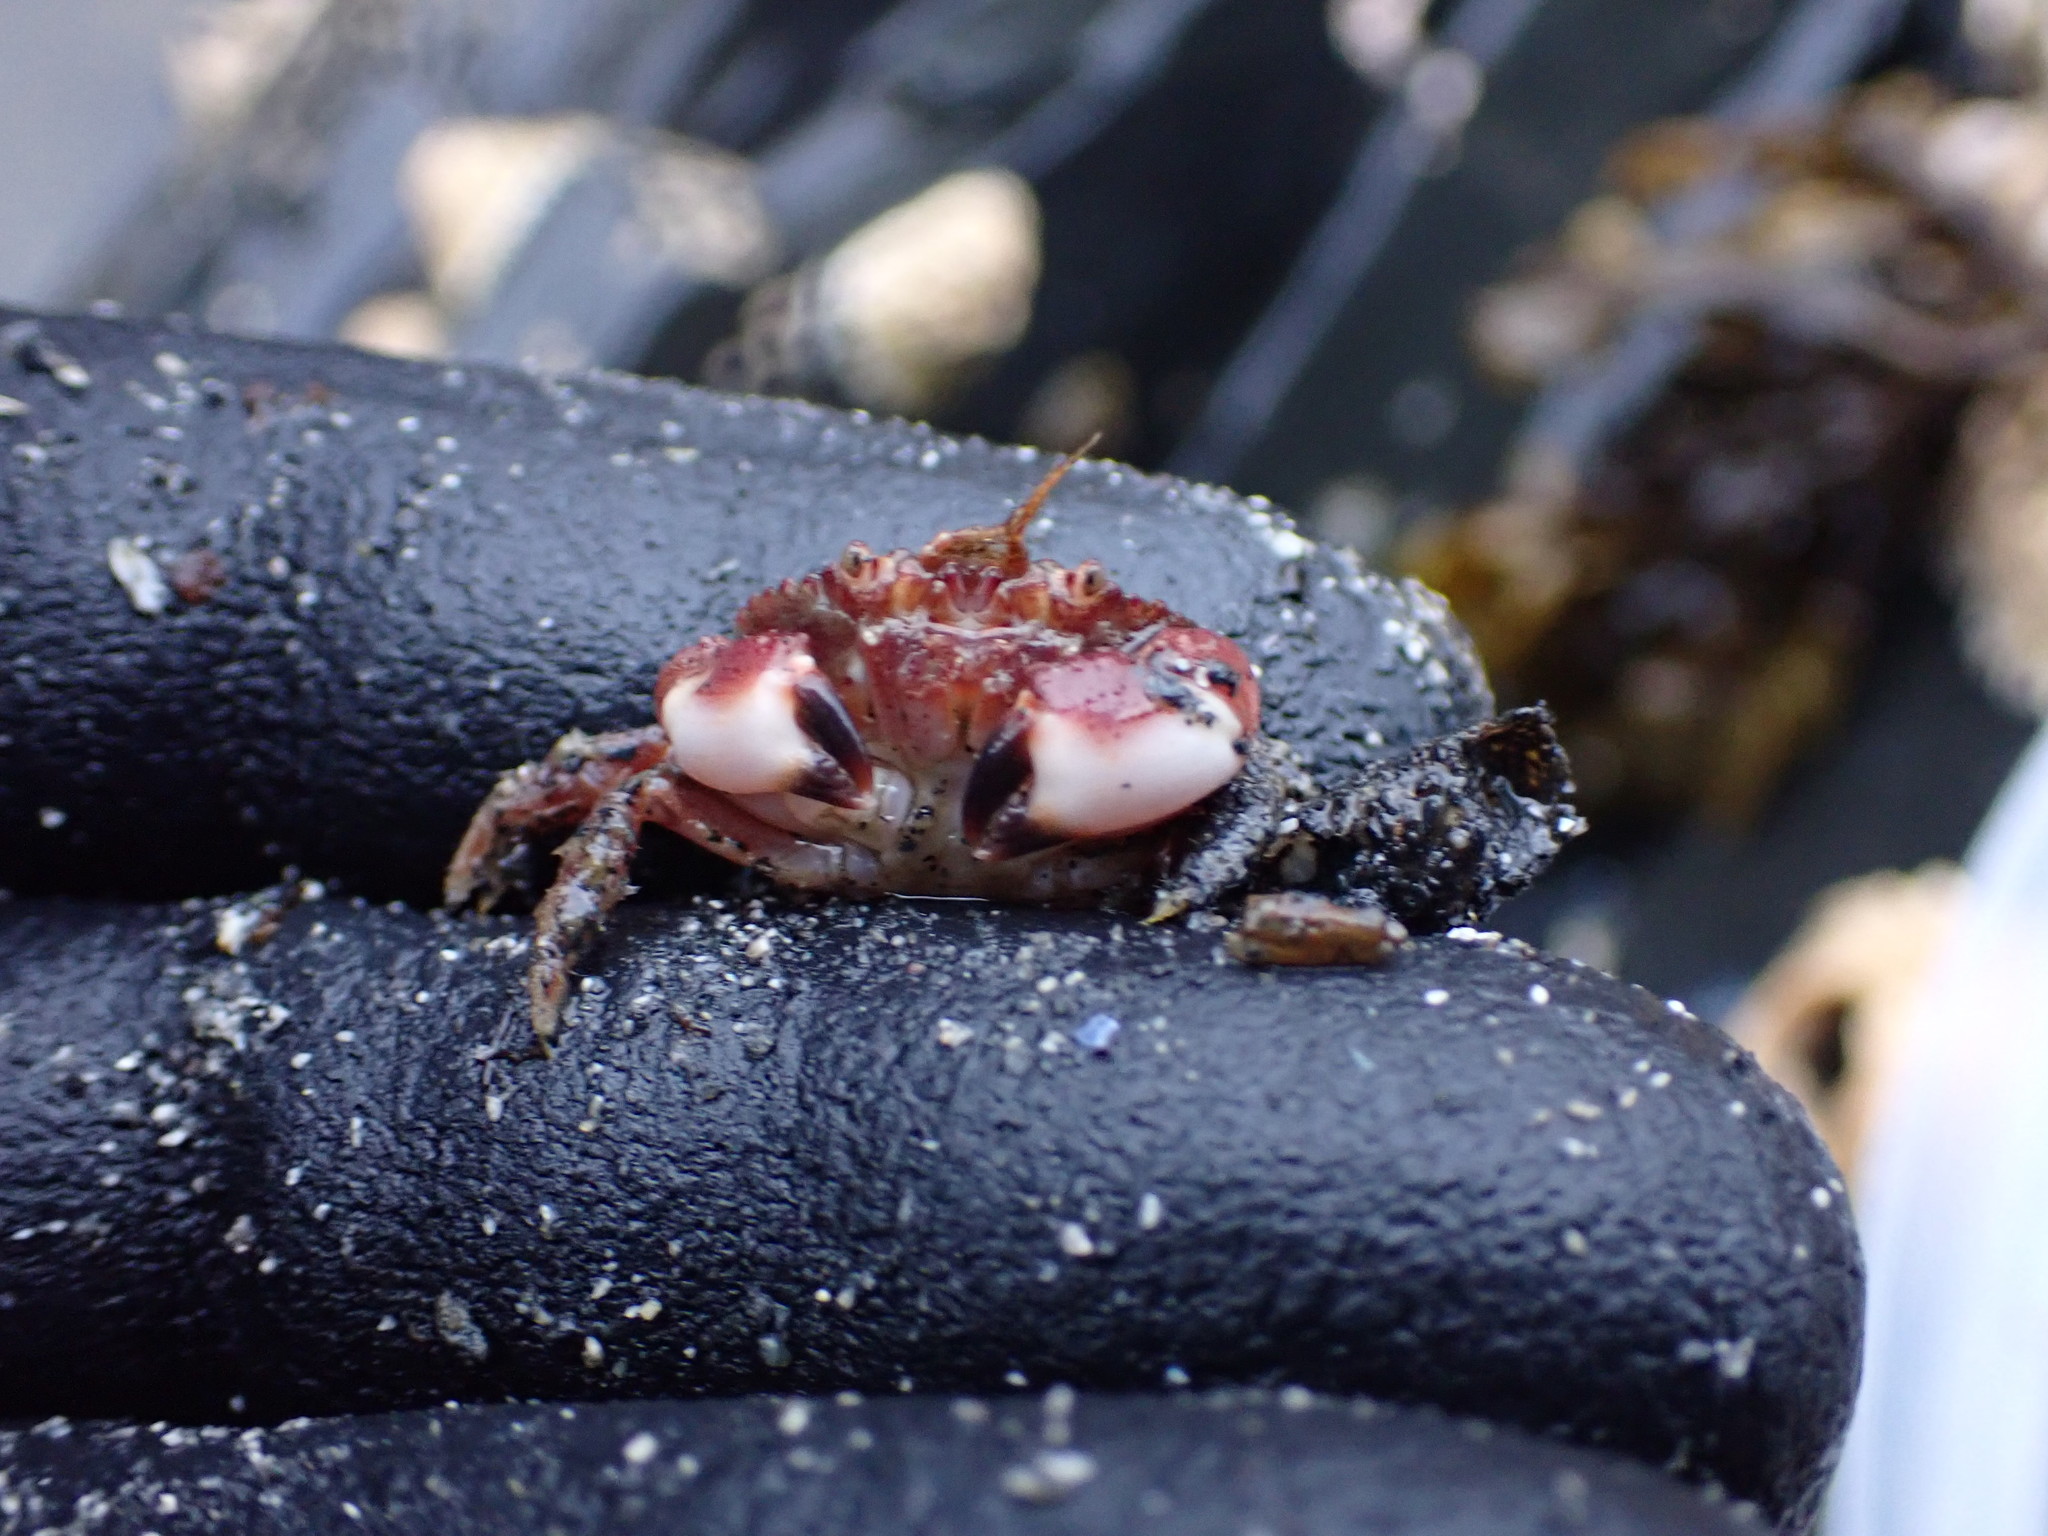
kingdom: Animalia
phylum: Arthropoda
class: Malacostraca
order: Decapoda
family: Cancridae
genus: Glebocarcinus
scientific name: Glebocarcinus oregonensis
